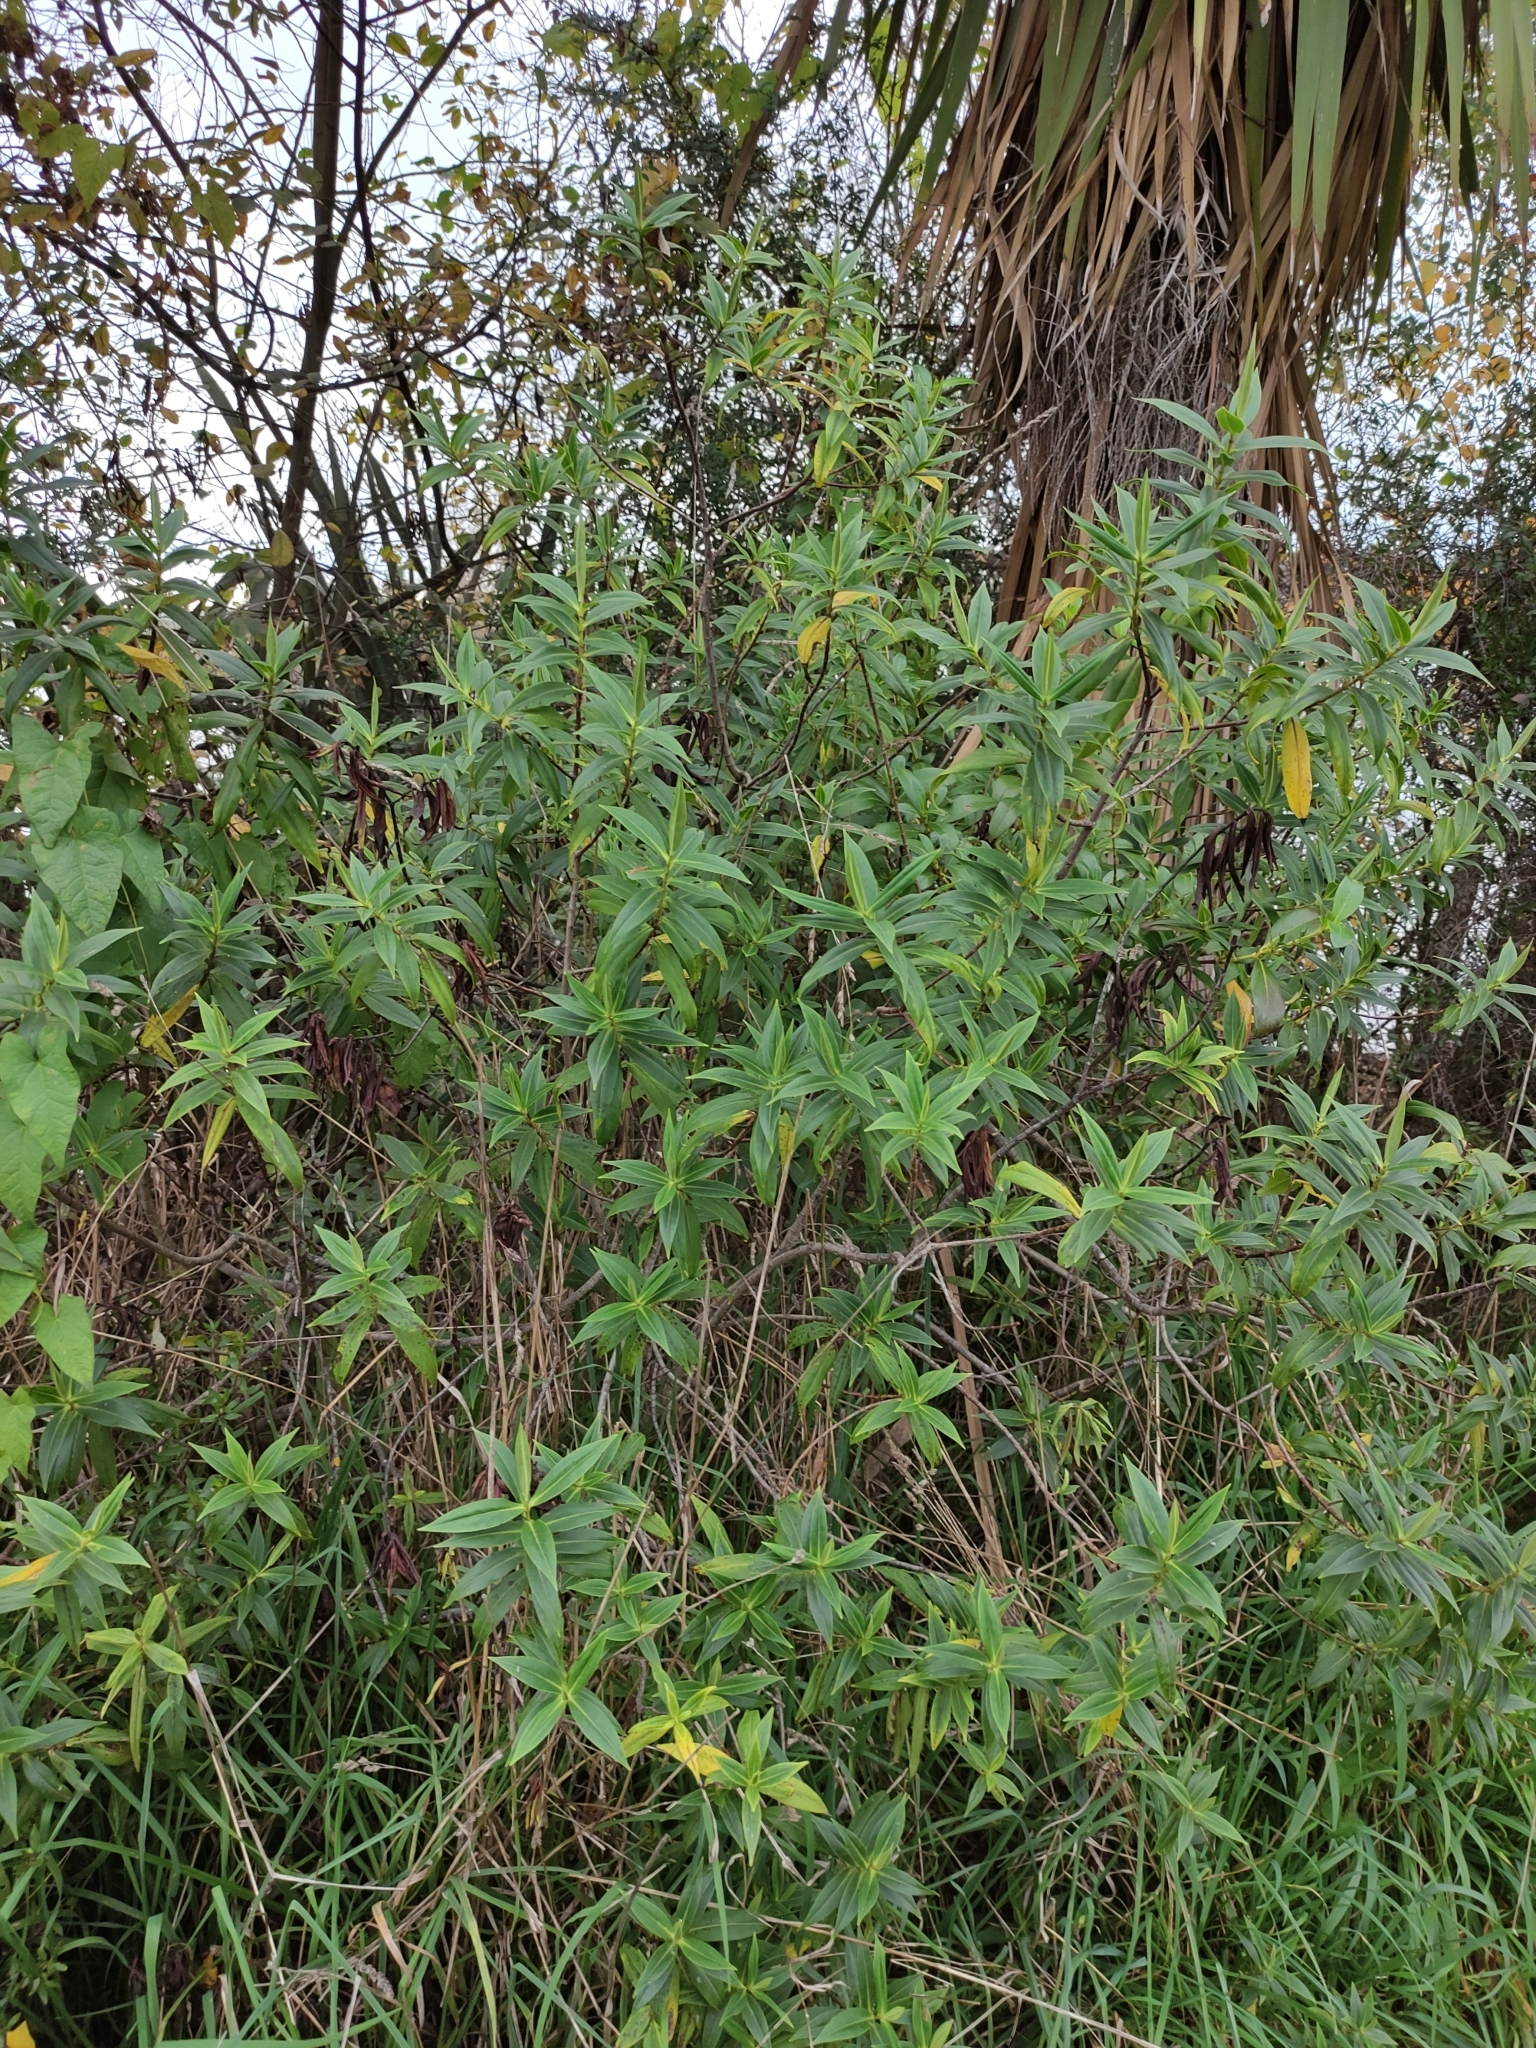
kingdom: Plantae
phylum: Tracheophyta
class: Magnoliopsida
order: Lamiales
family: Plantaginaceae
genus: Veronica
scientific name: Veronica salicifolia
